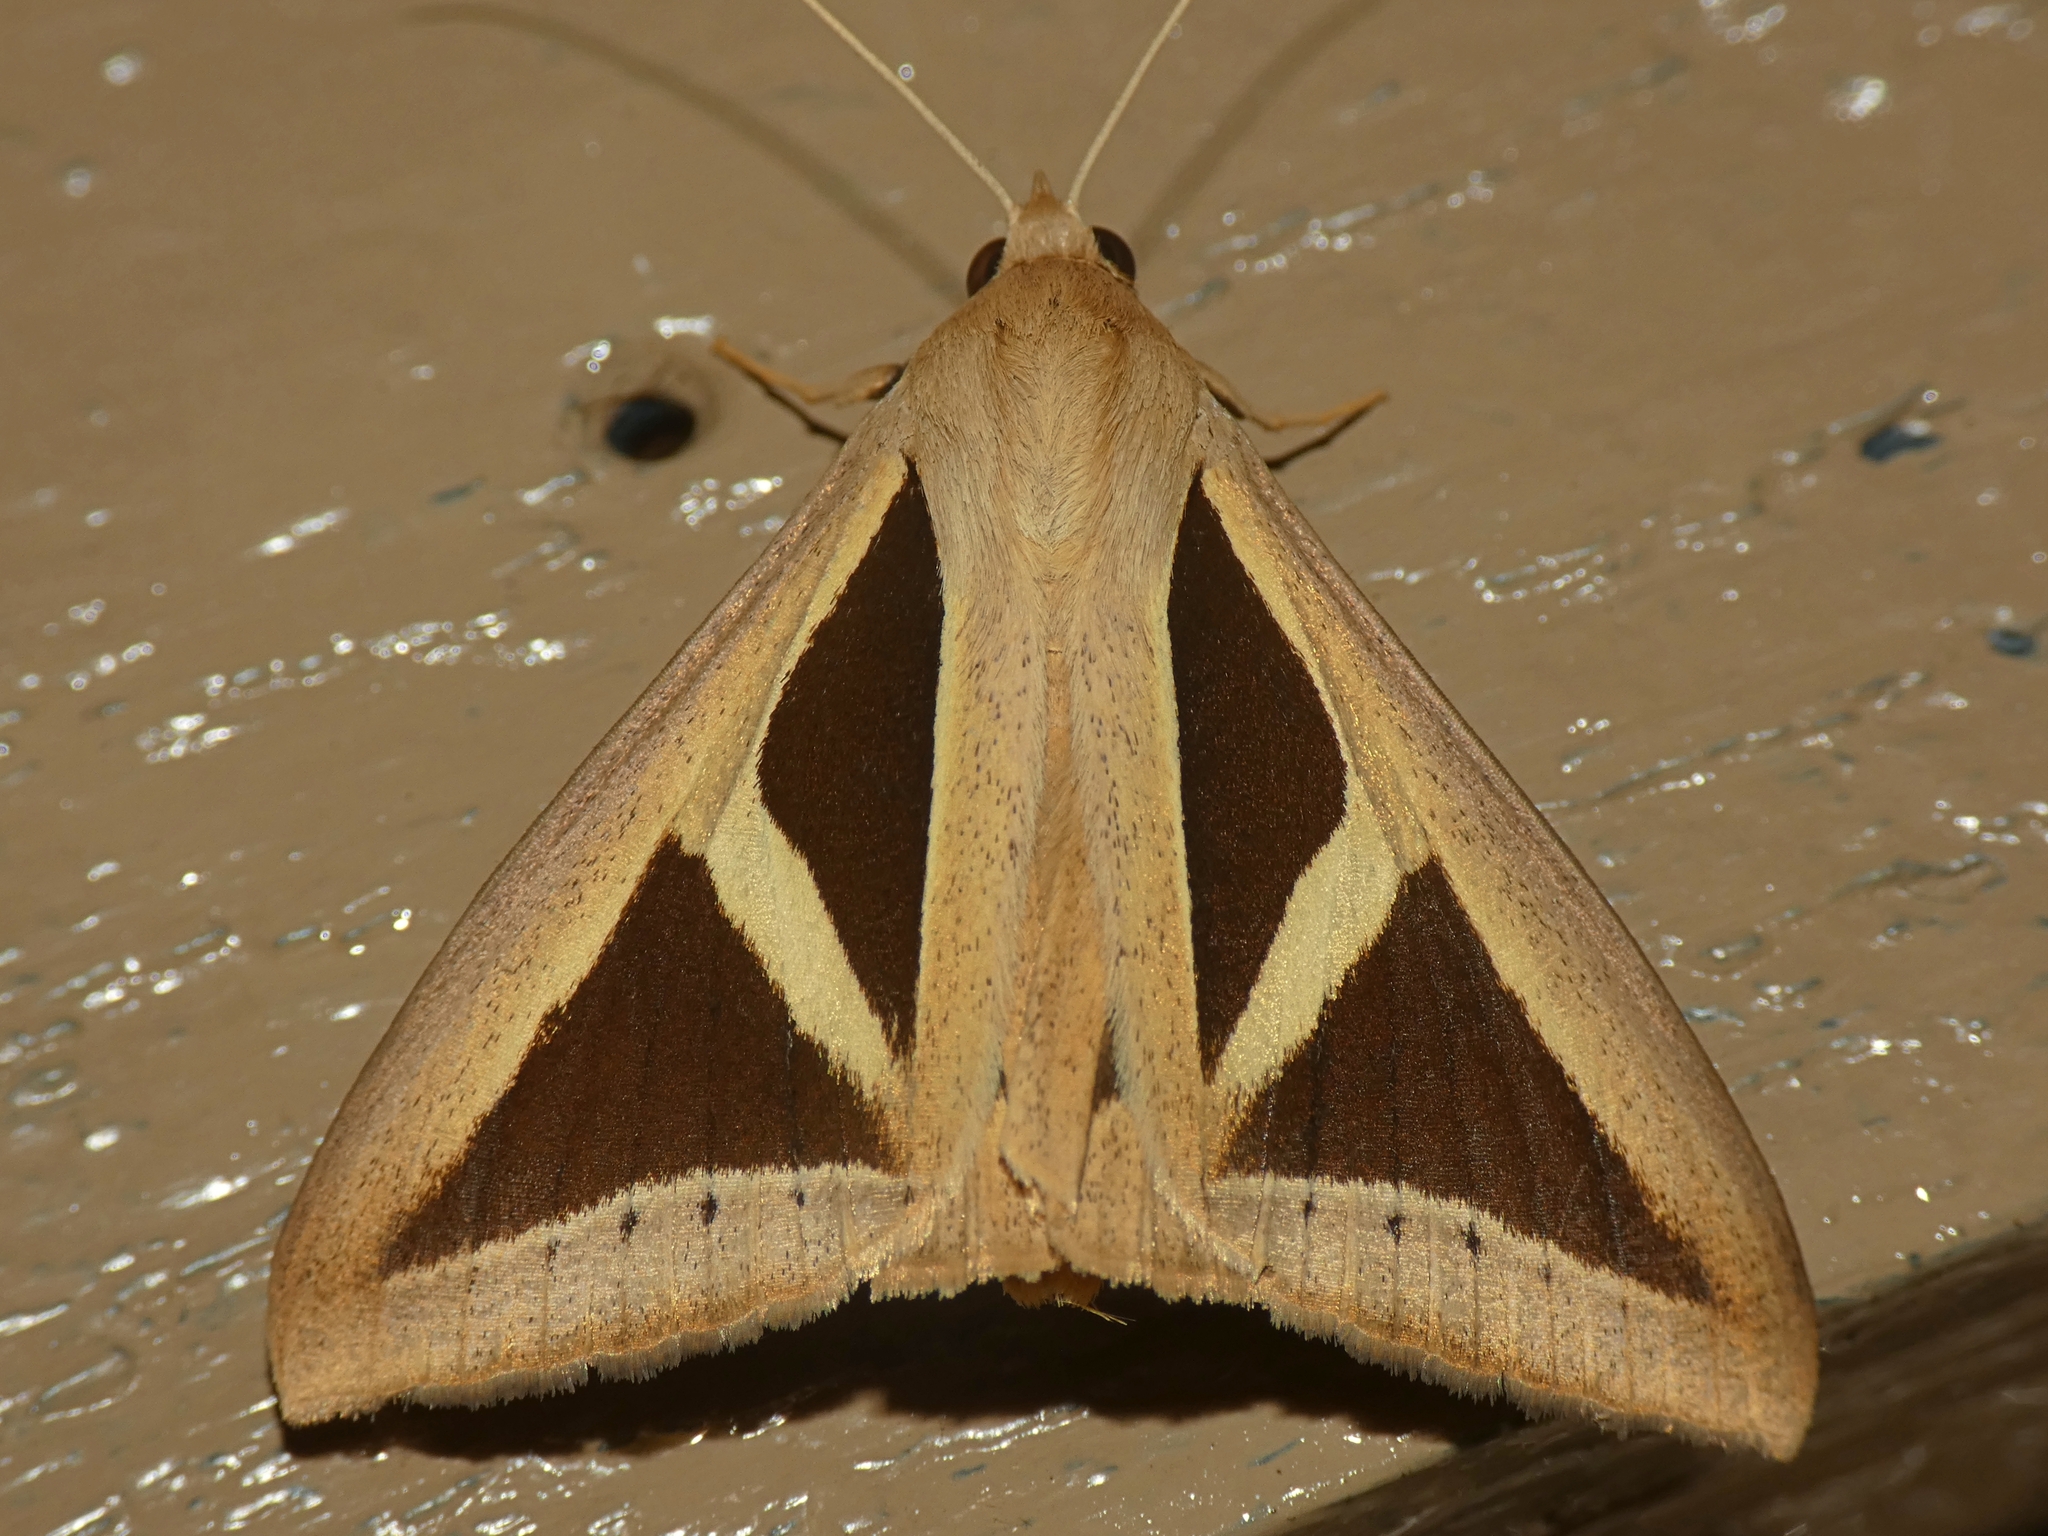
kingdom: Animalia
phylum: Arthropoda
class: Insecta
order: Lepidoptera
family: Erebidae
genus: Trigonodes
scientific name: Trigonodes cephise
